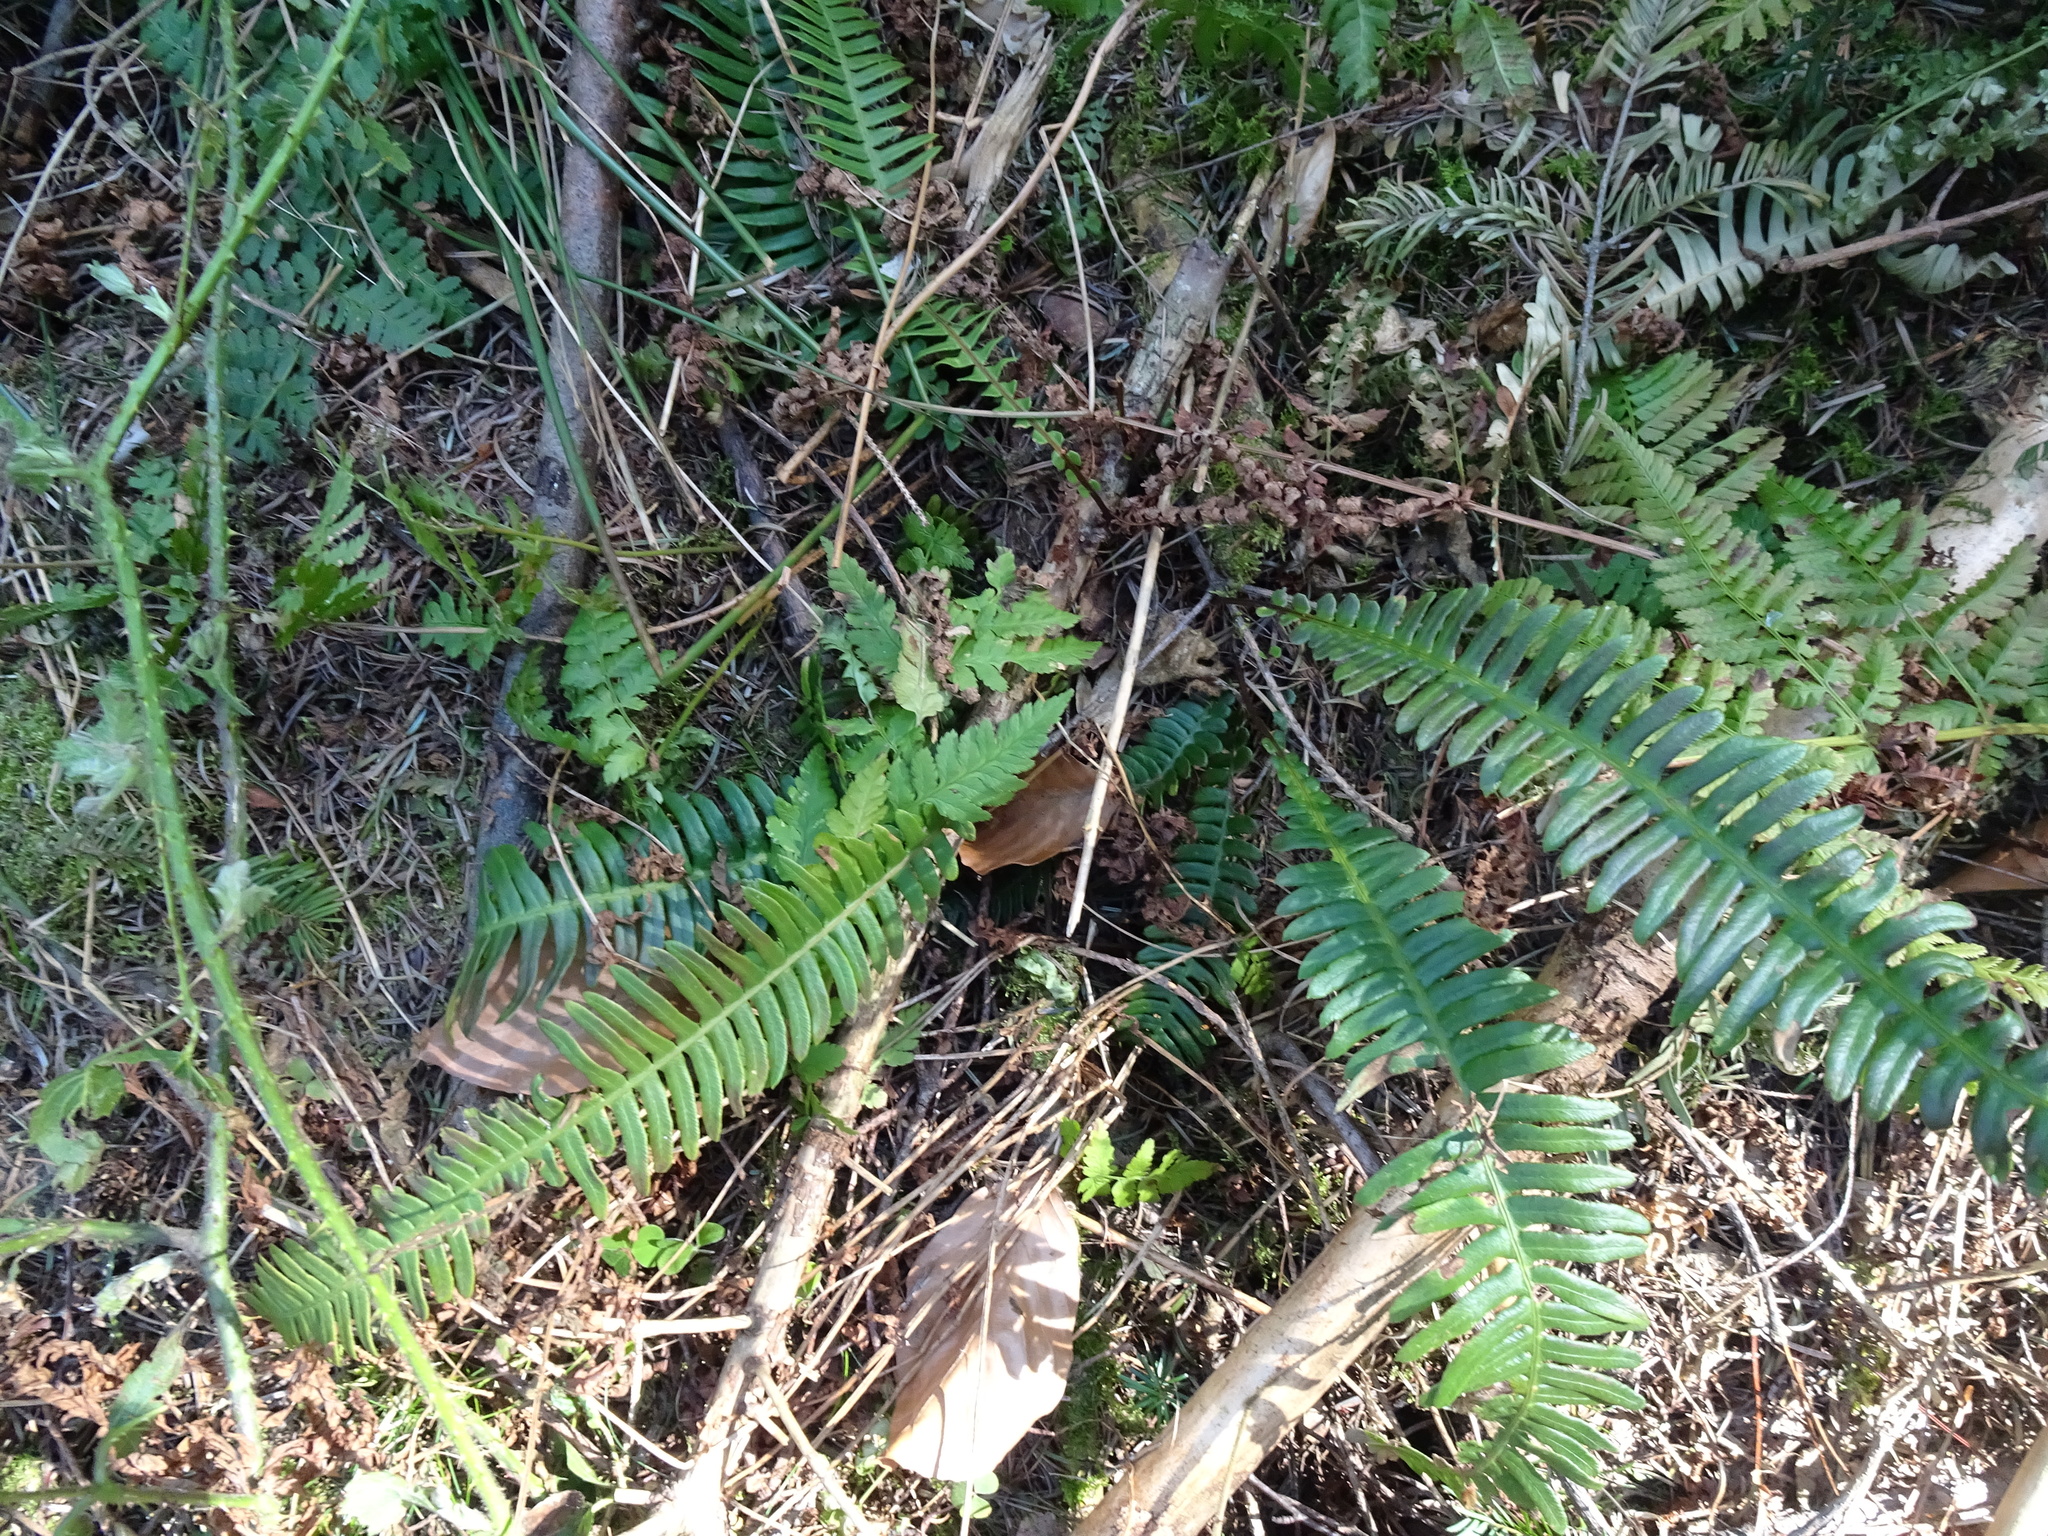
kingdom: Plantae
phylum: Tracheophyta
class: Polypodiopsida
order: Polypodiales
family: Blechnaceae
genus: Struthiopteris
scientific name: Struthiopteris spicant
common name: Deer fern
